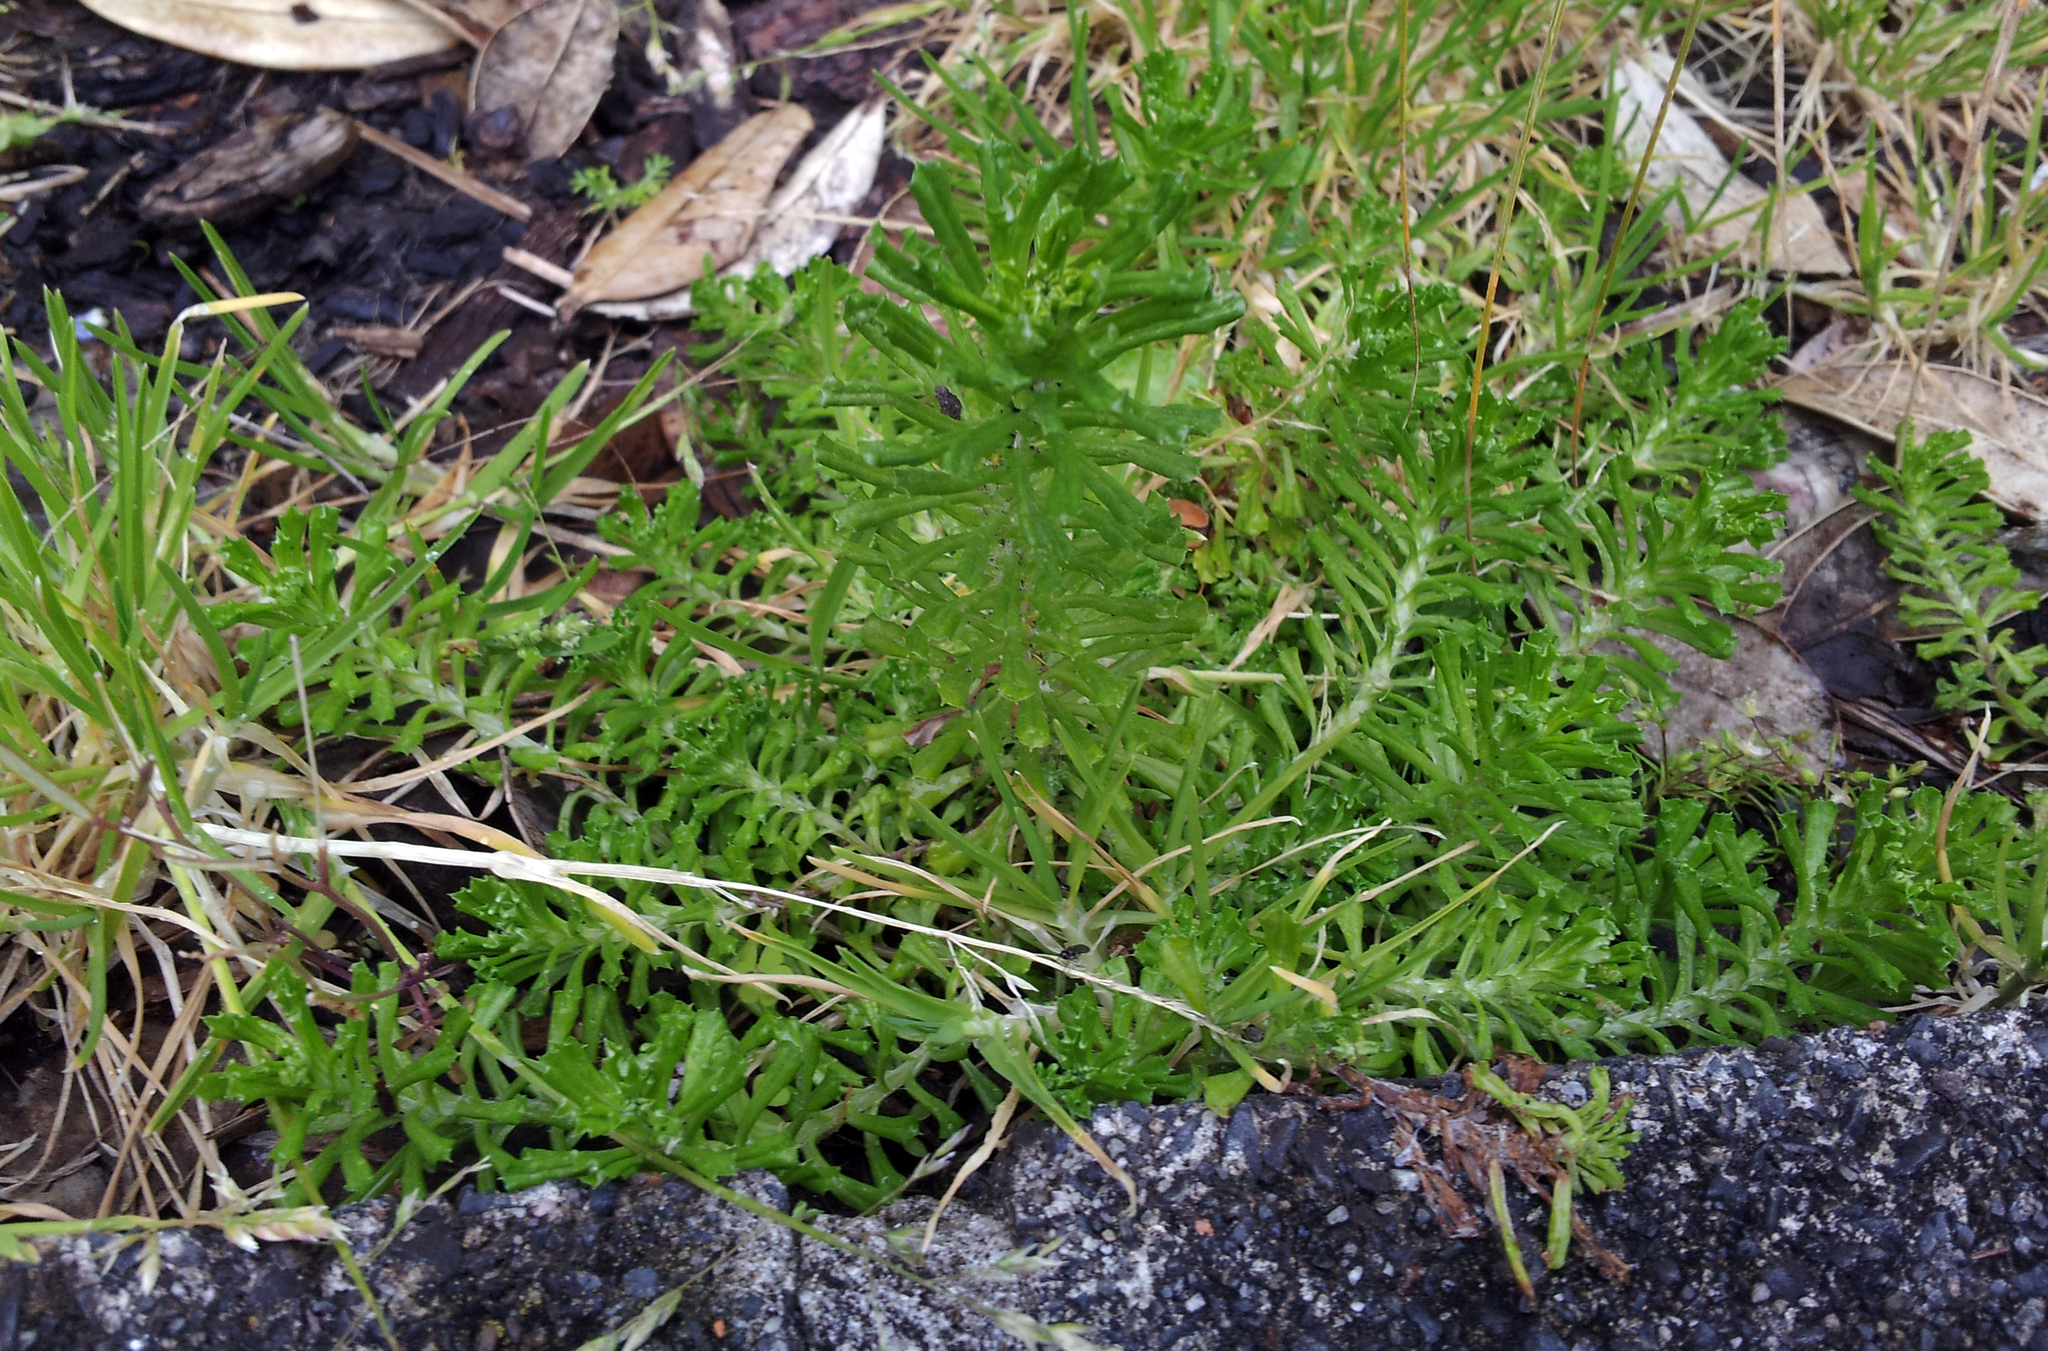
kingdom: Plantae
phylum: Tracheophyta
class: Magnoliopsida
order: Asterales
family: Asteraceae
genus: Facelis
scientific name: Facelis retusa
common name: Annual trampweed
